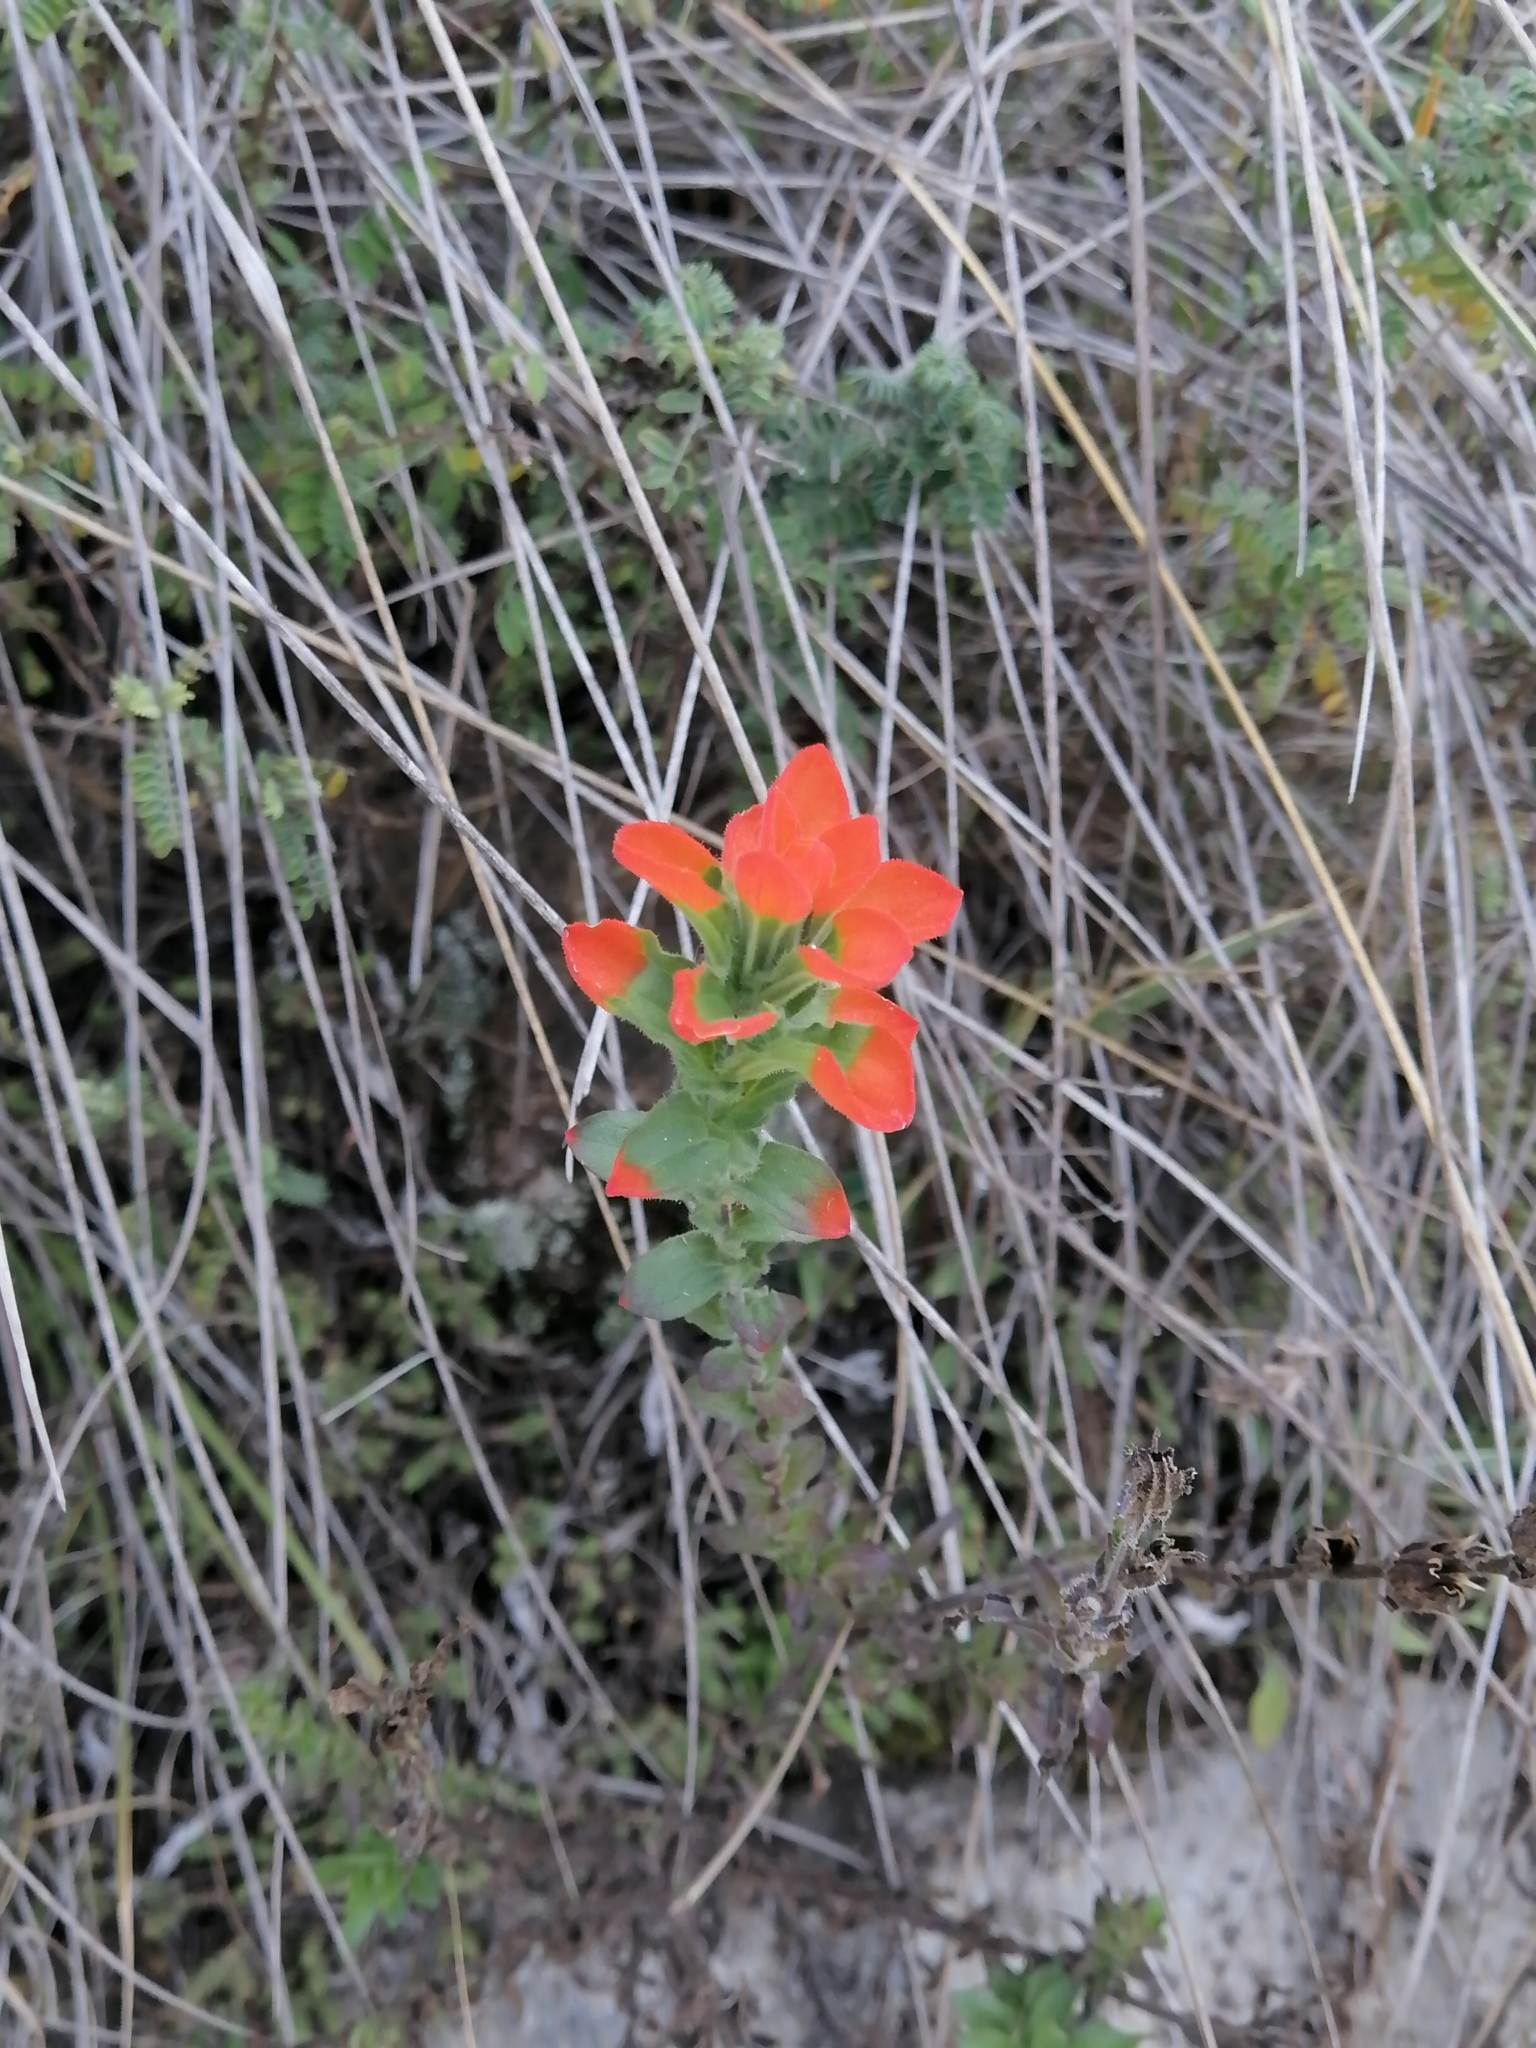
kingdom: Plantae
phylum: Tracheophyta
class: Magnoliopsida
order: Lamiales
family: Orobanchaceae
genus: Castilleja
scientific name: Castilleja scorzonerifolia
